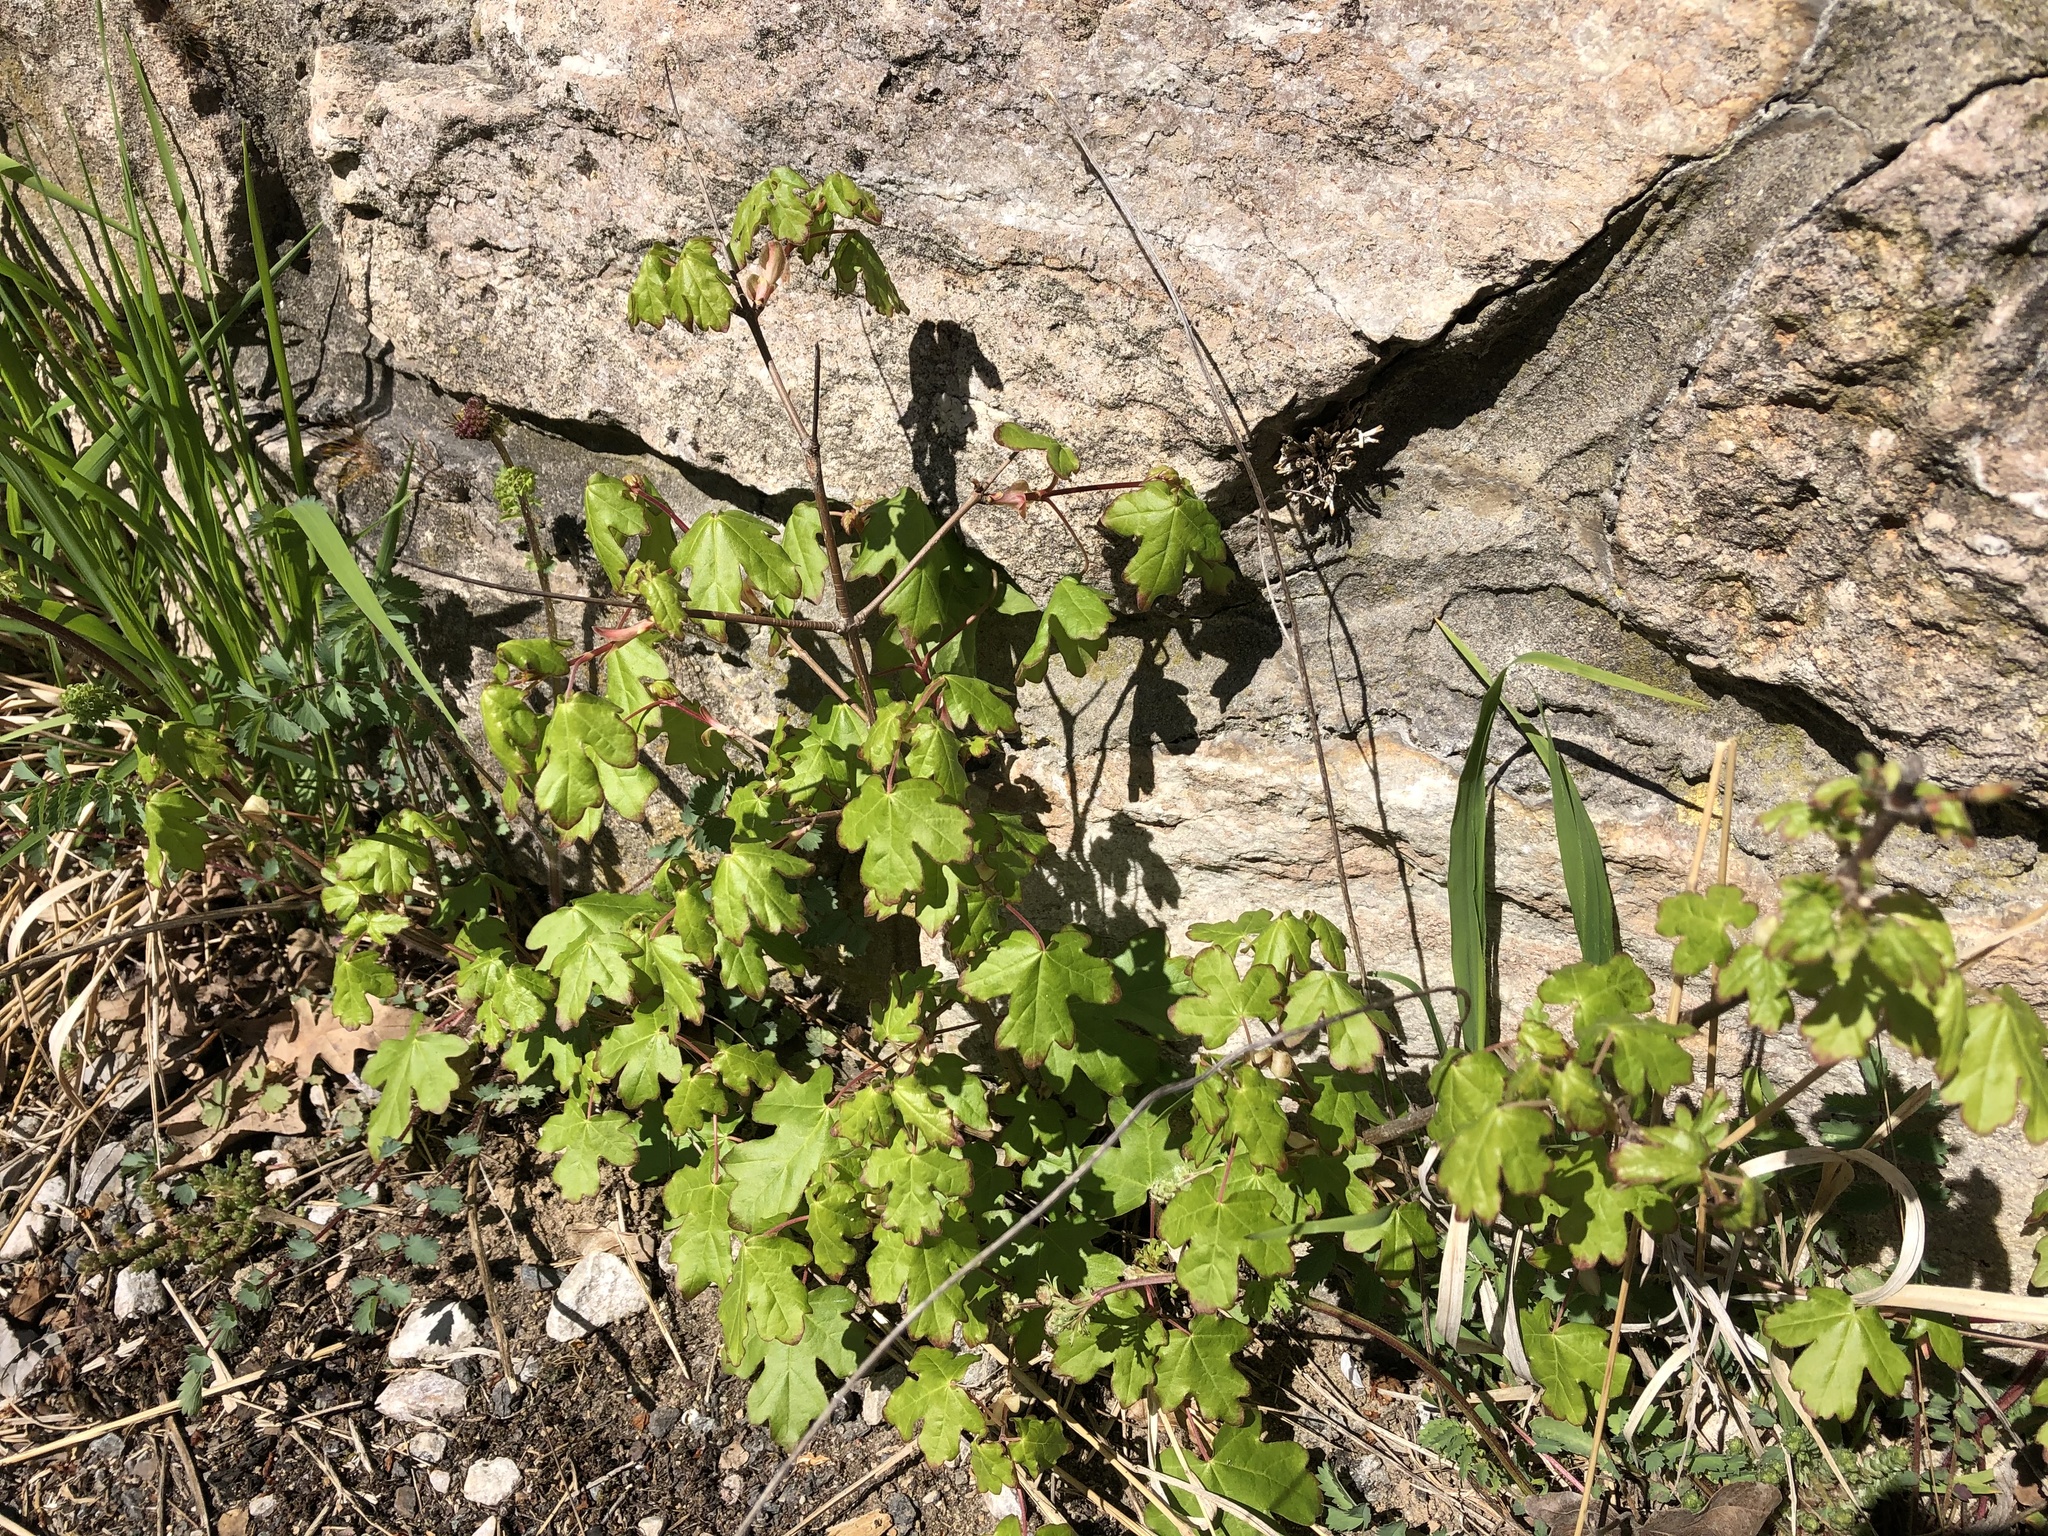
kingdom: Plantae
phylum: Tracheophyta
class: Magnoliopsida
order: Sapindales
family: Sapindaceae
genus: Acer
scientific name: Acer campestre
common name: Field maple
